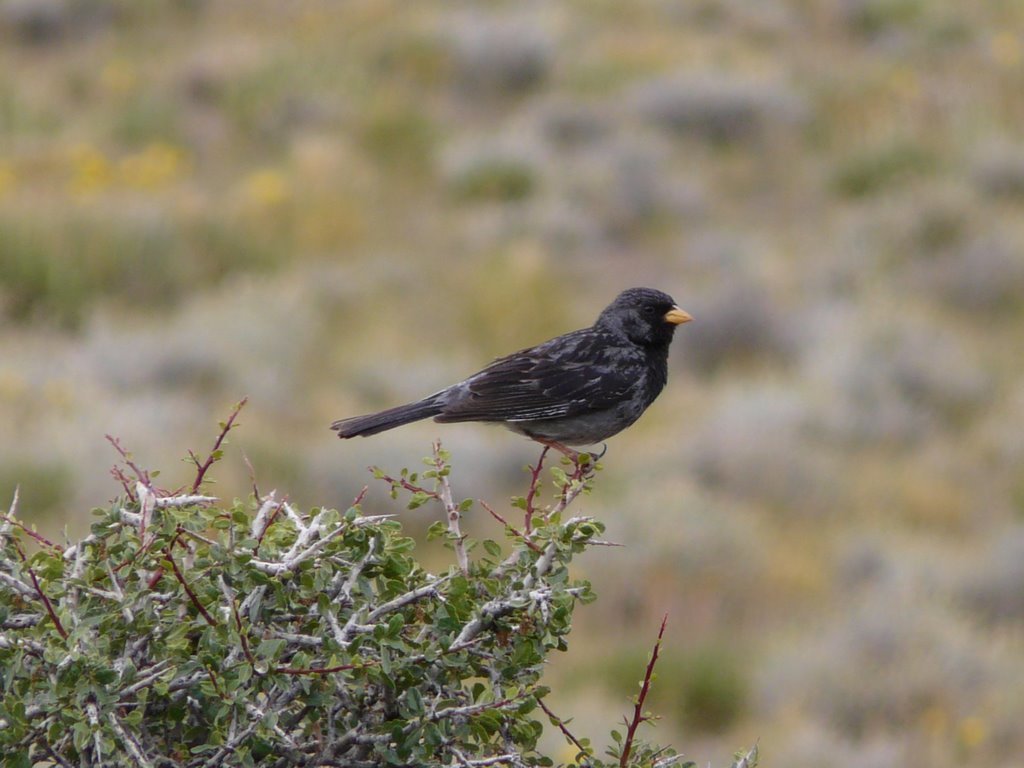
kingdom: Animalia
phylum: Chordata
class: Aves
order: Passeriformes
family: Thraupidae
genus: Porphyrospiza
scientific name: Porphyrospiza carbonaria
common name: Carbon finch
